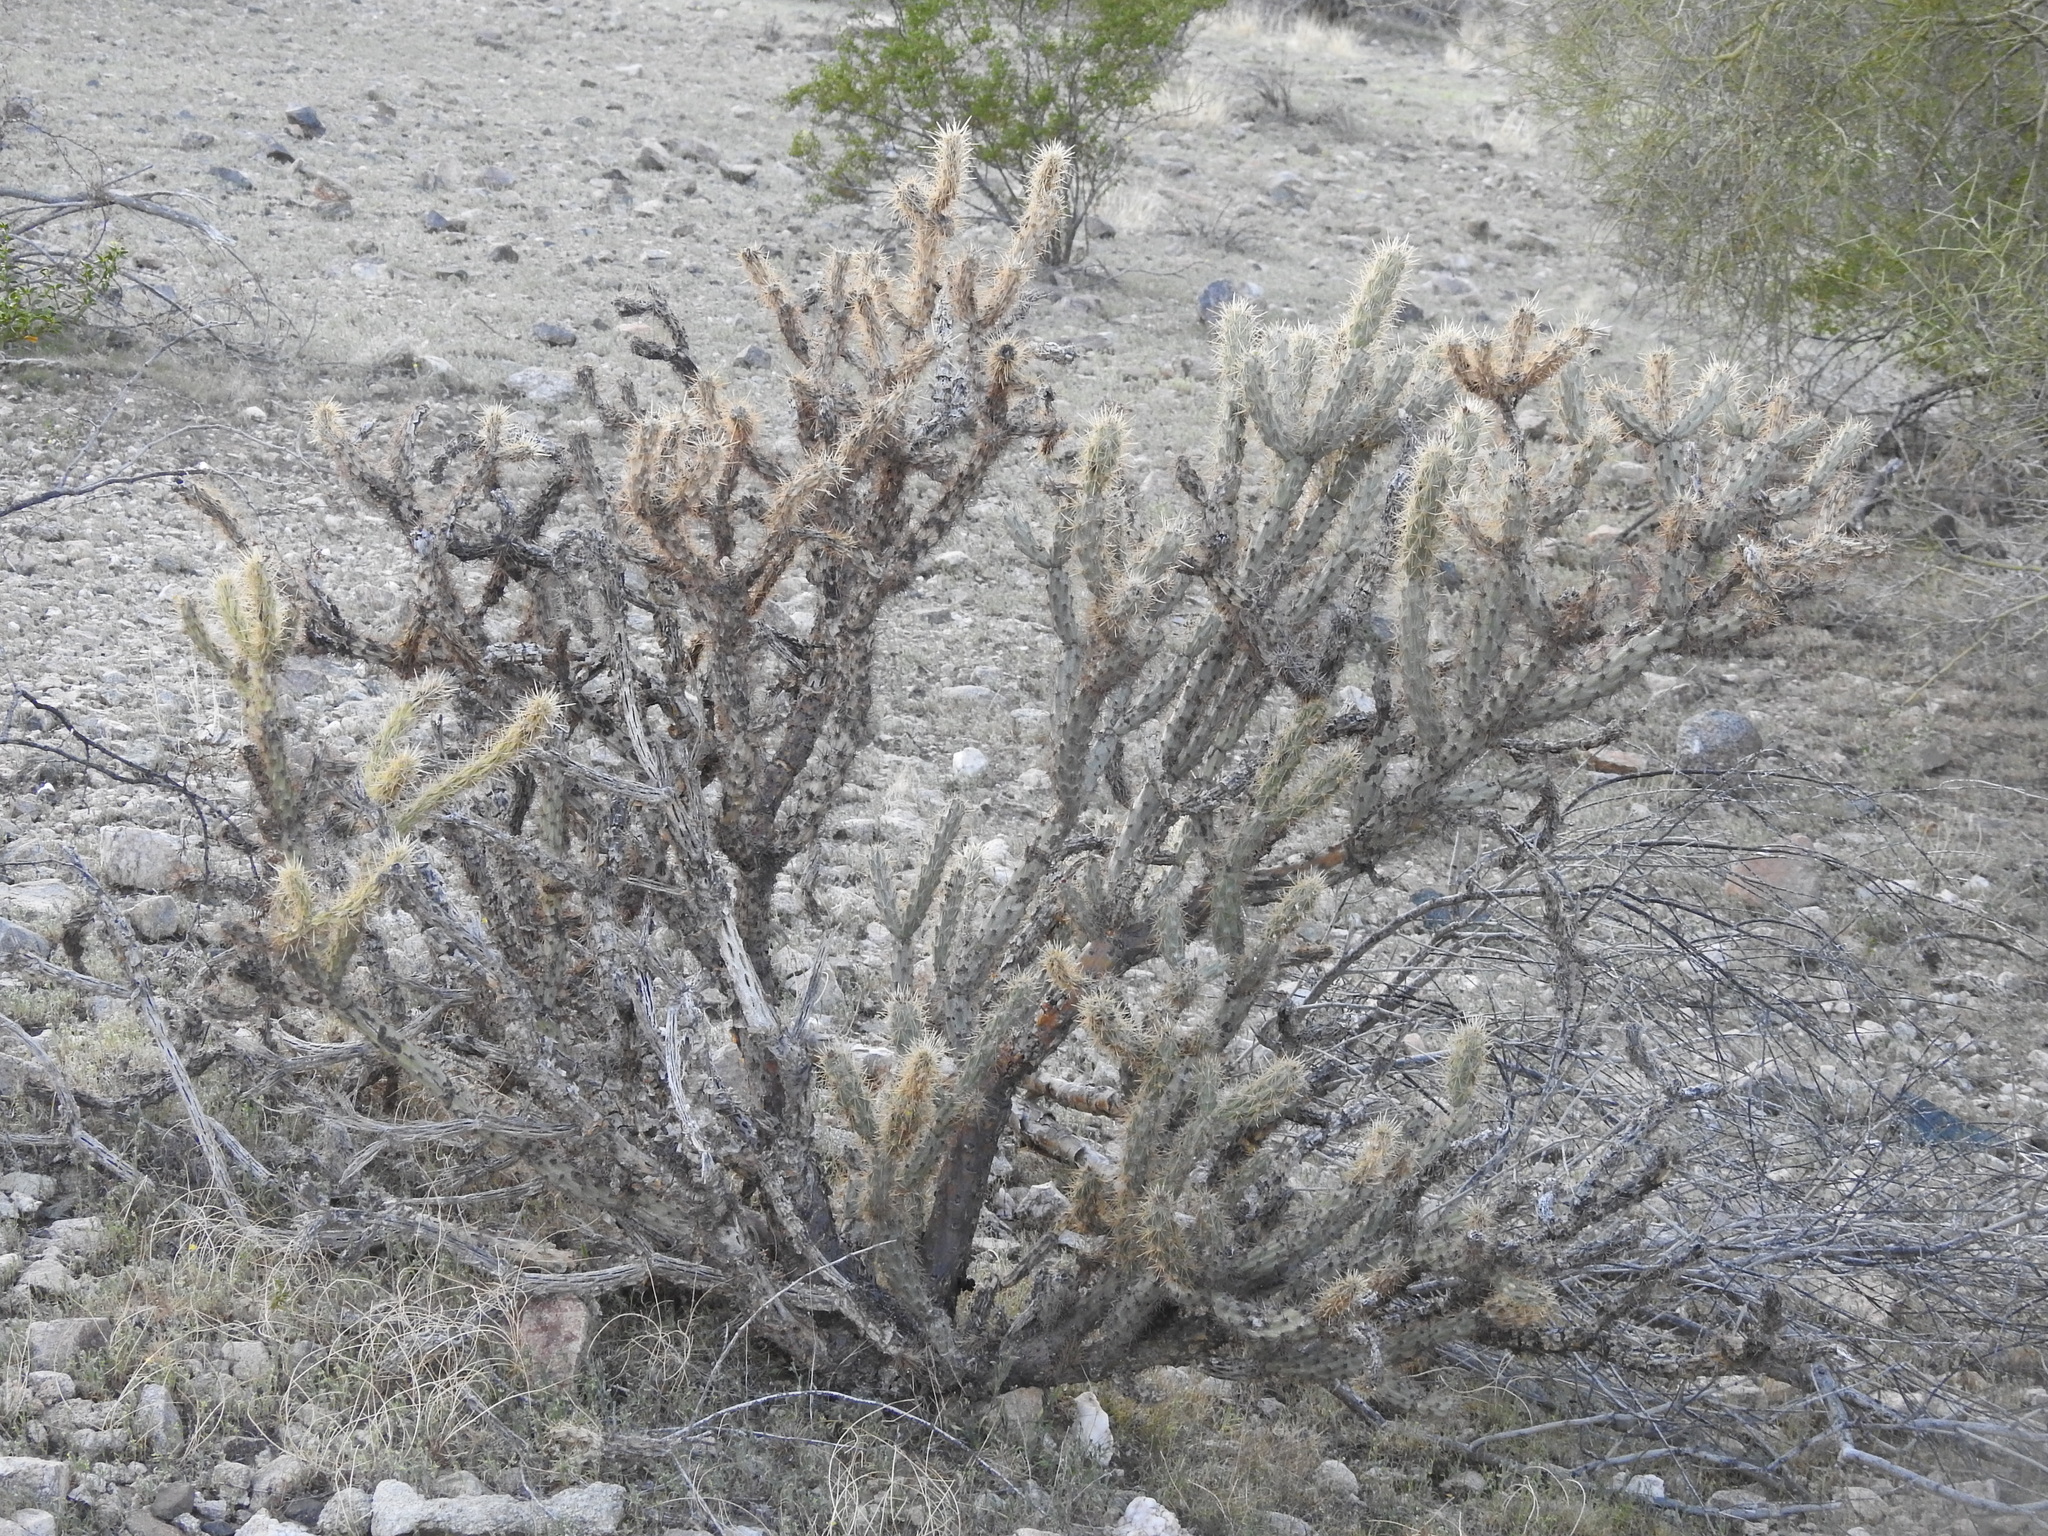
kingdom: Plantae
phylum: Tracheophyta
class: Magnoliopsida
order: Caryophyllales
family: Cactaceae
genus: Cylindropuntia
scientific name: Cylindropuntia acanthocarpa
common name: Buckhorn cholla
